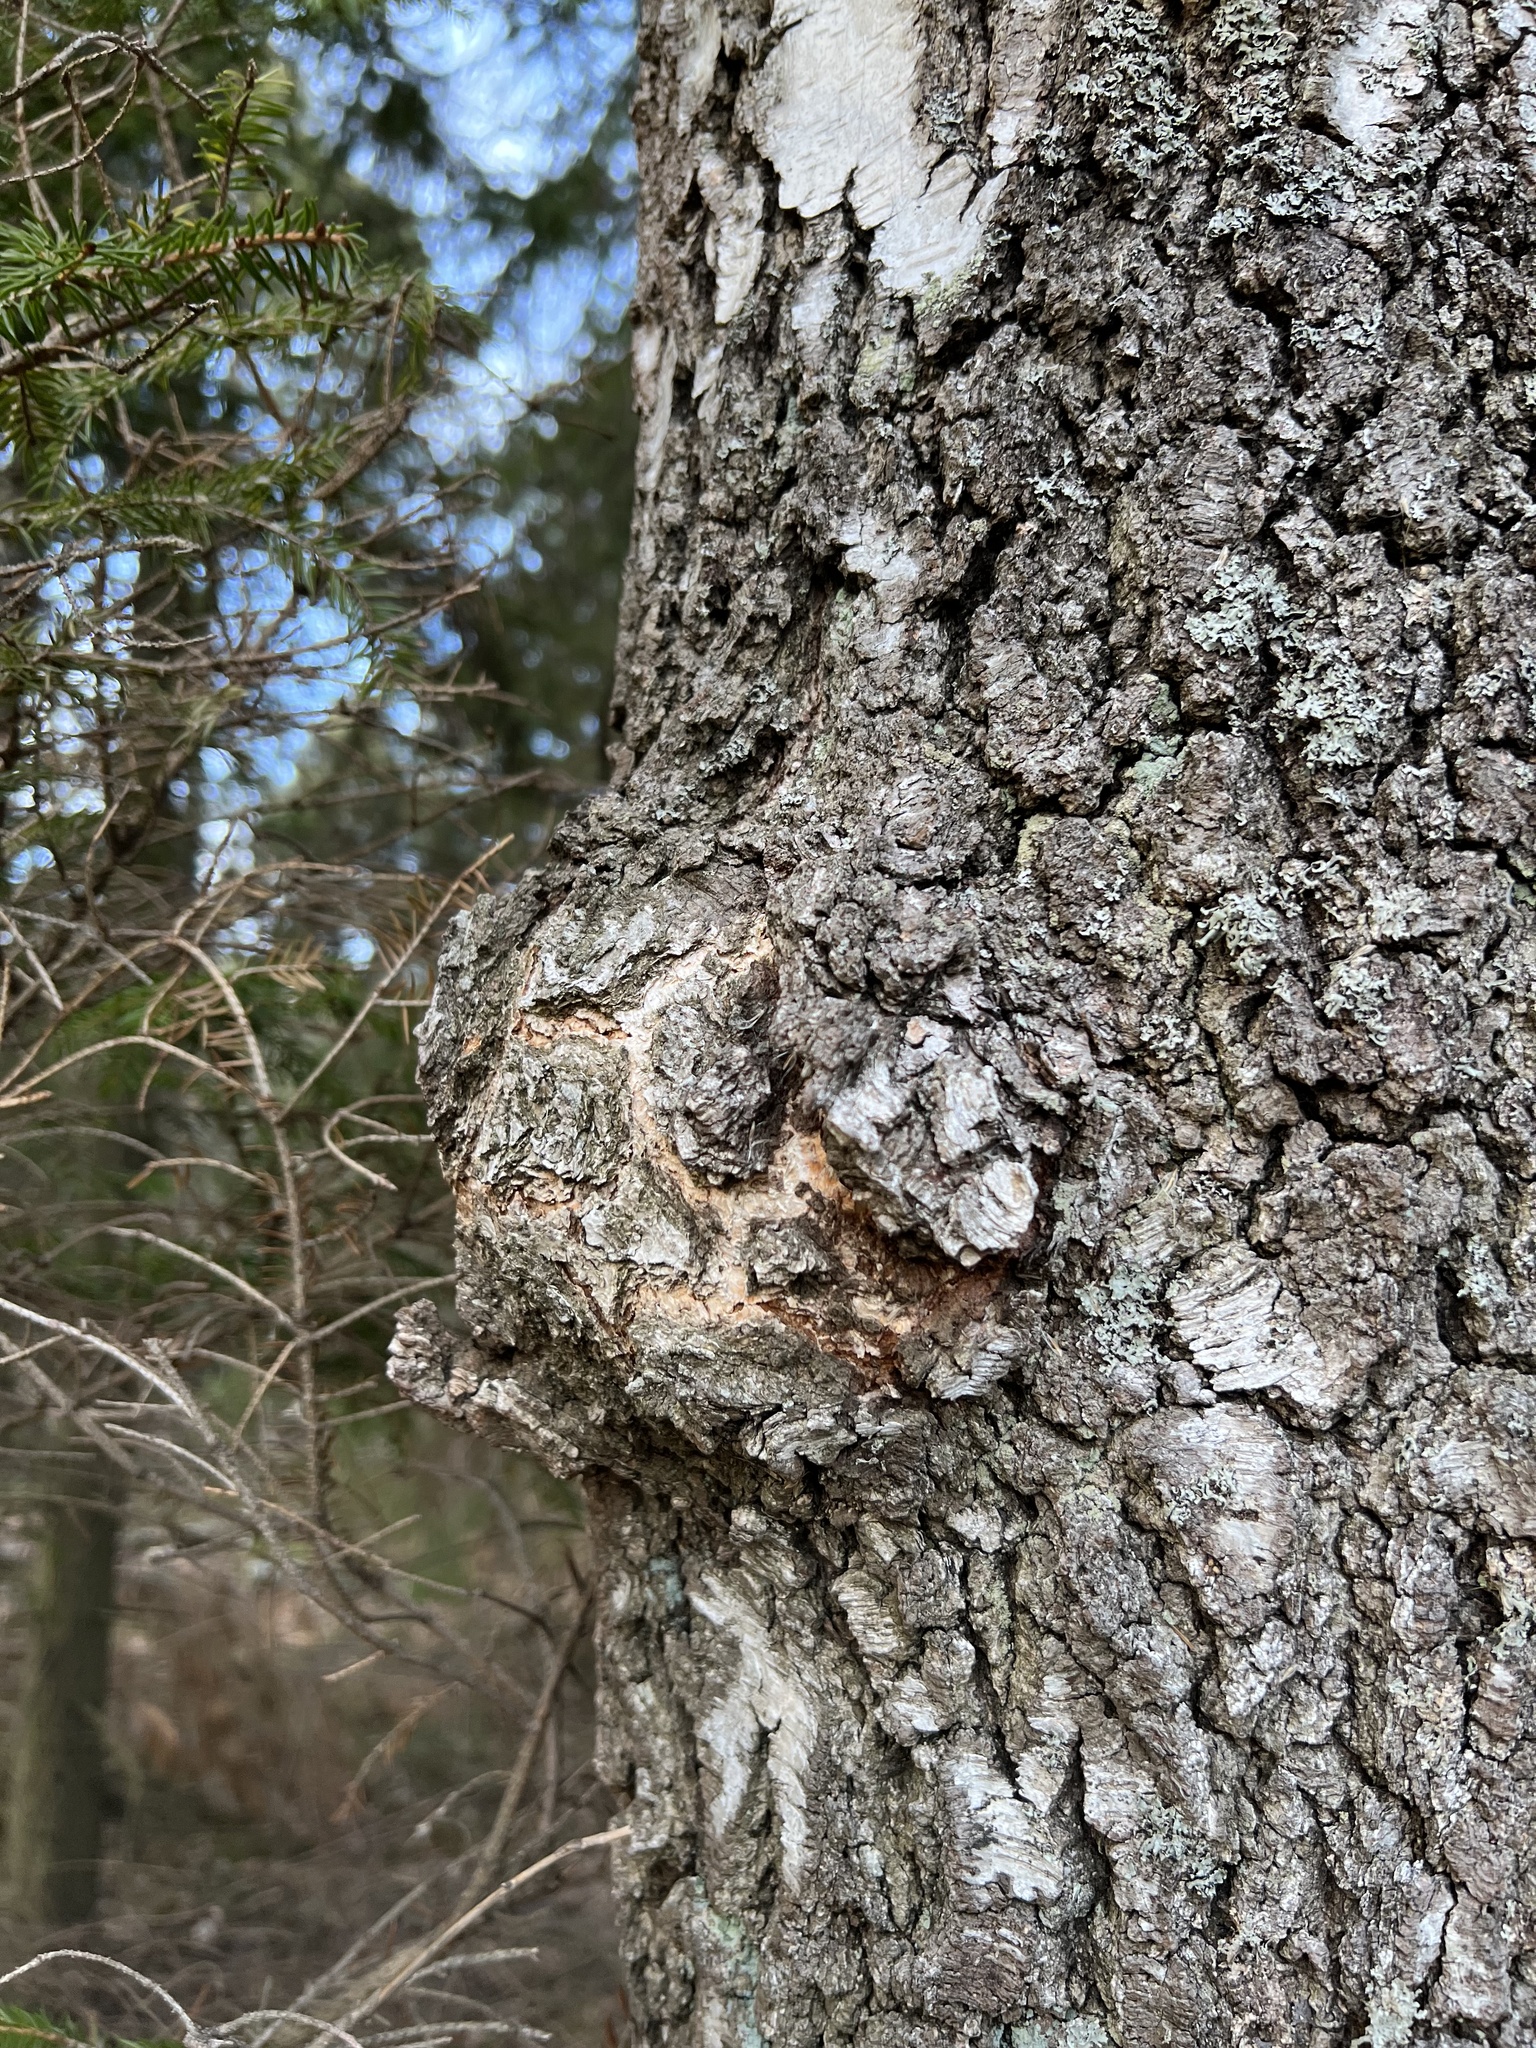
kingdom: Bacteria
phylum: Proteobacteria
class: Alphaproteobacteria
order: Rhizobiales
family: Rhizobiaceae
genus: Rhizobium
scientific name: Rhizobium Agrobacterium radiobacter
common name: Bacterial crown gall
